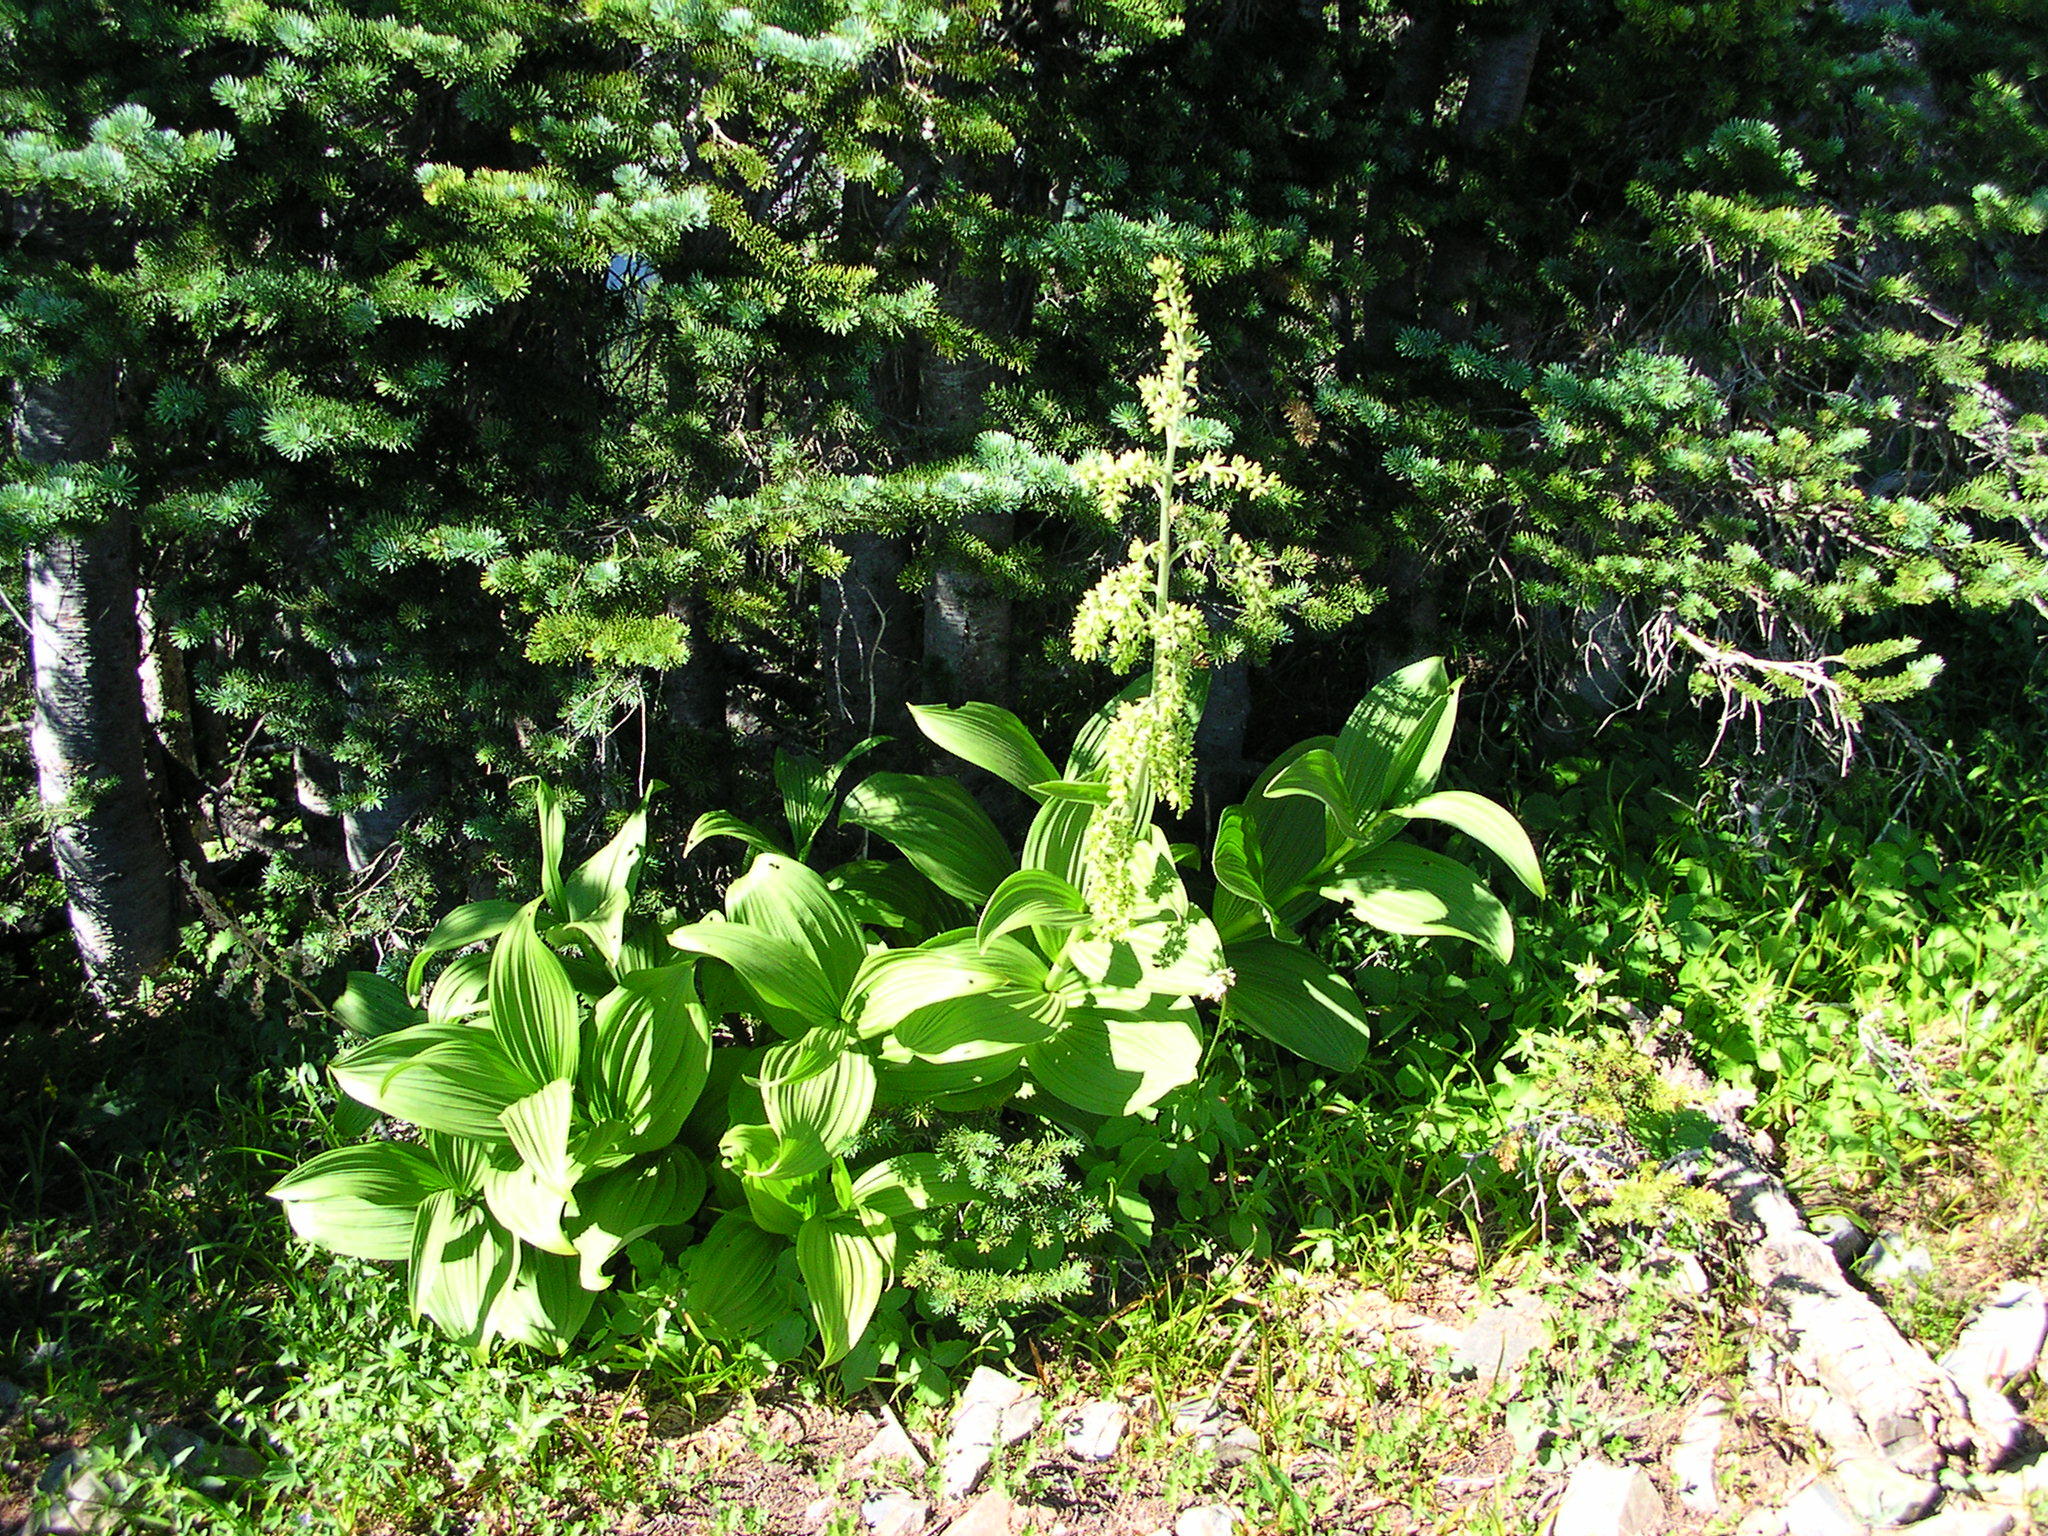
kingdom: Plantae
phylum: Tracheophyta
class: Liliopsida
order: Liliales
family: Melanthiaceae
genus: Veratrum
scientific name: Veratrum viride
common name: American false hellebore
